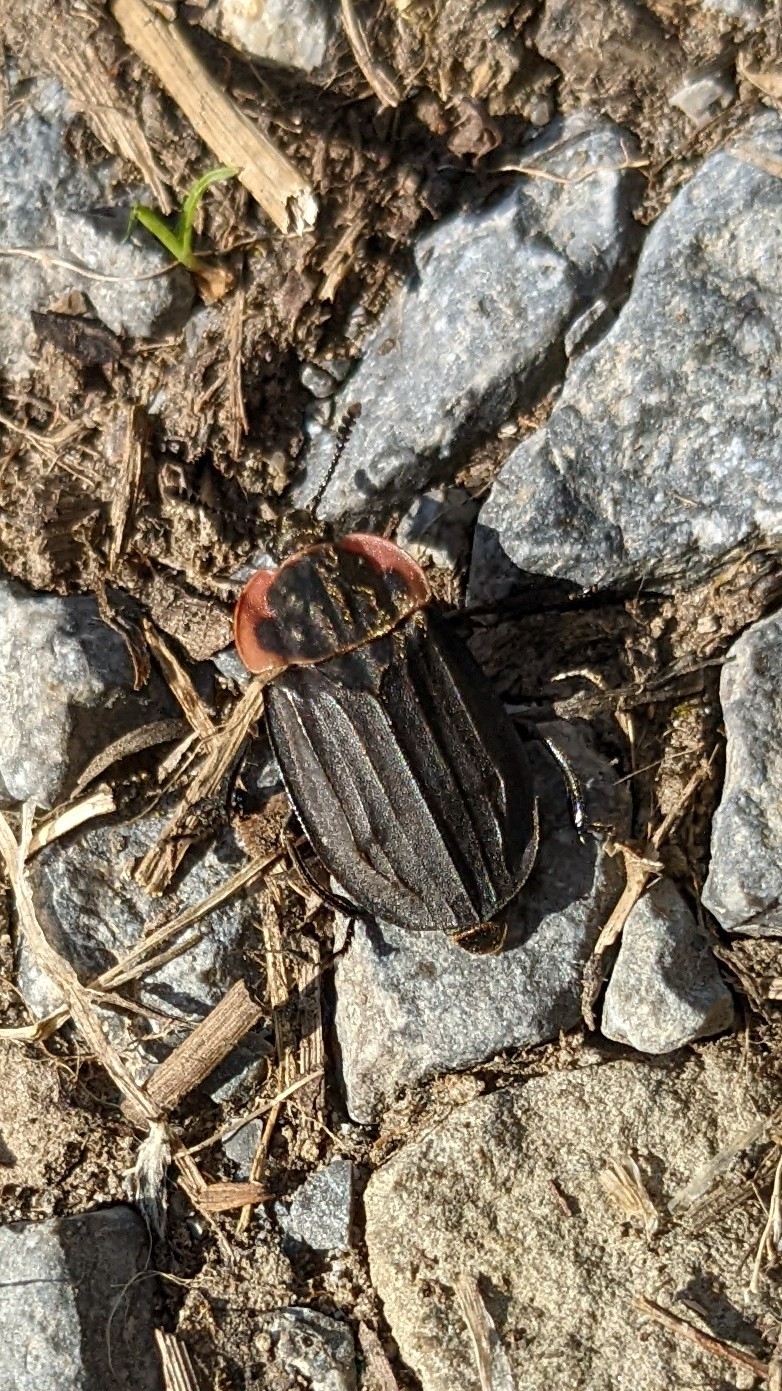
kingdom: Animalia
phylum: Arthropoda
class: Insecta
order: Coleoptera
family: Staphylinidae
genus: Oiceoptoma
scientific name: Oiceoptoma noveboracense
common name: Margined carrion beetle
